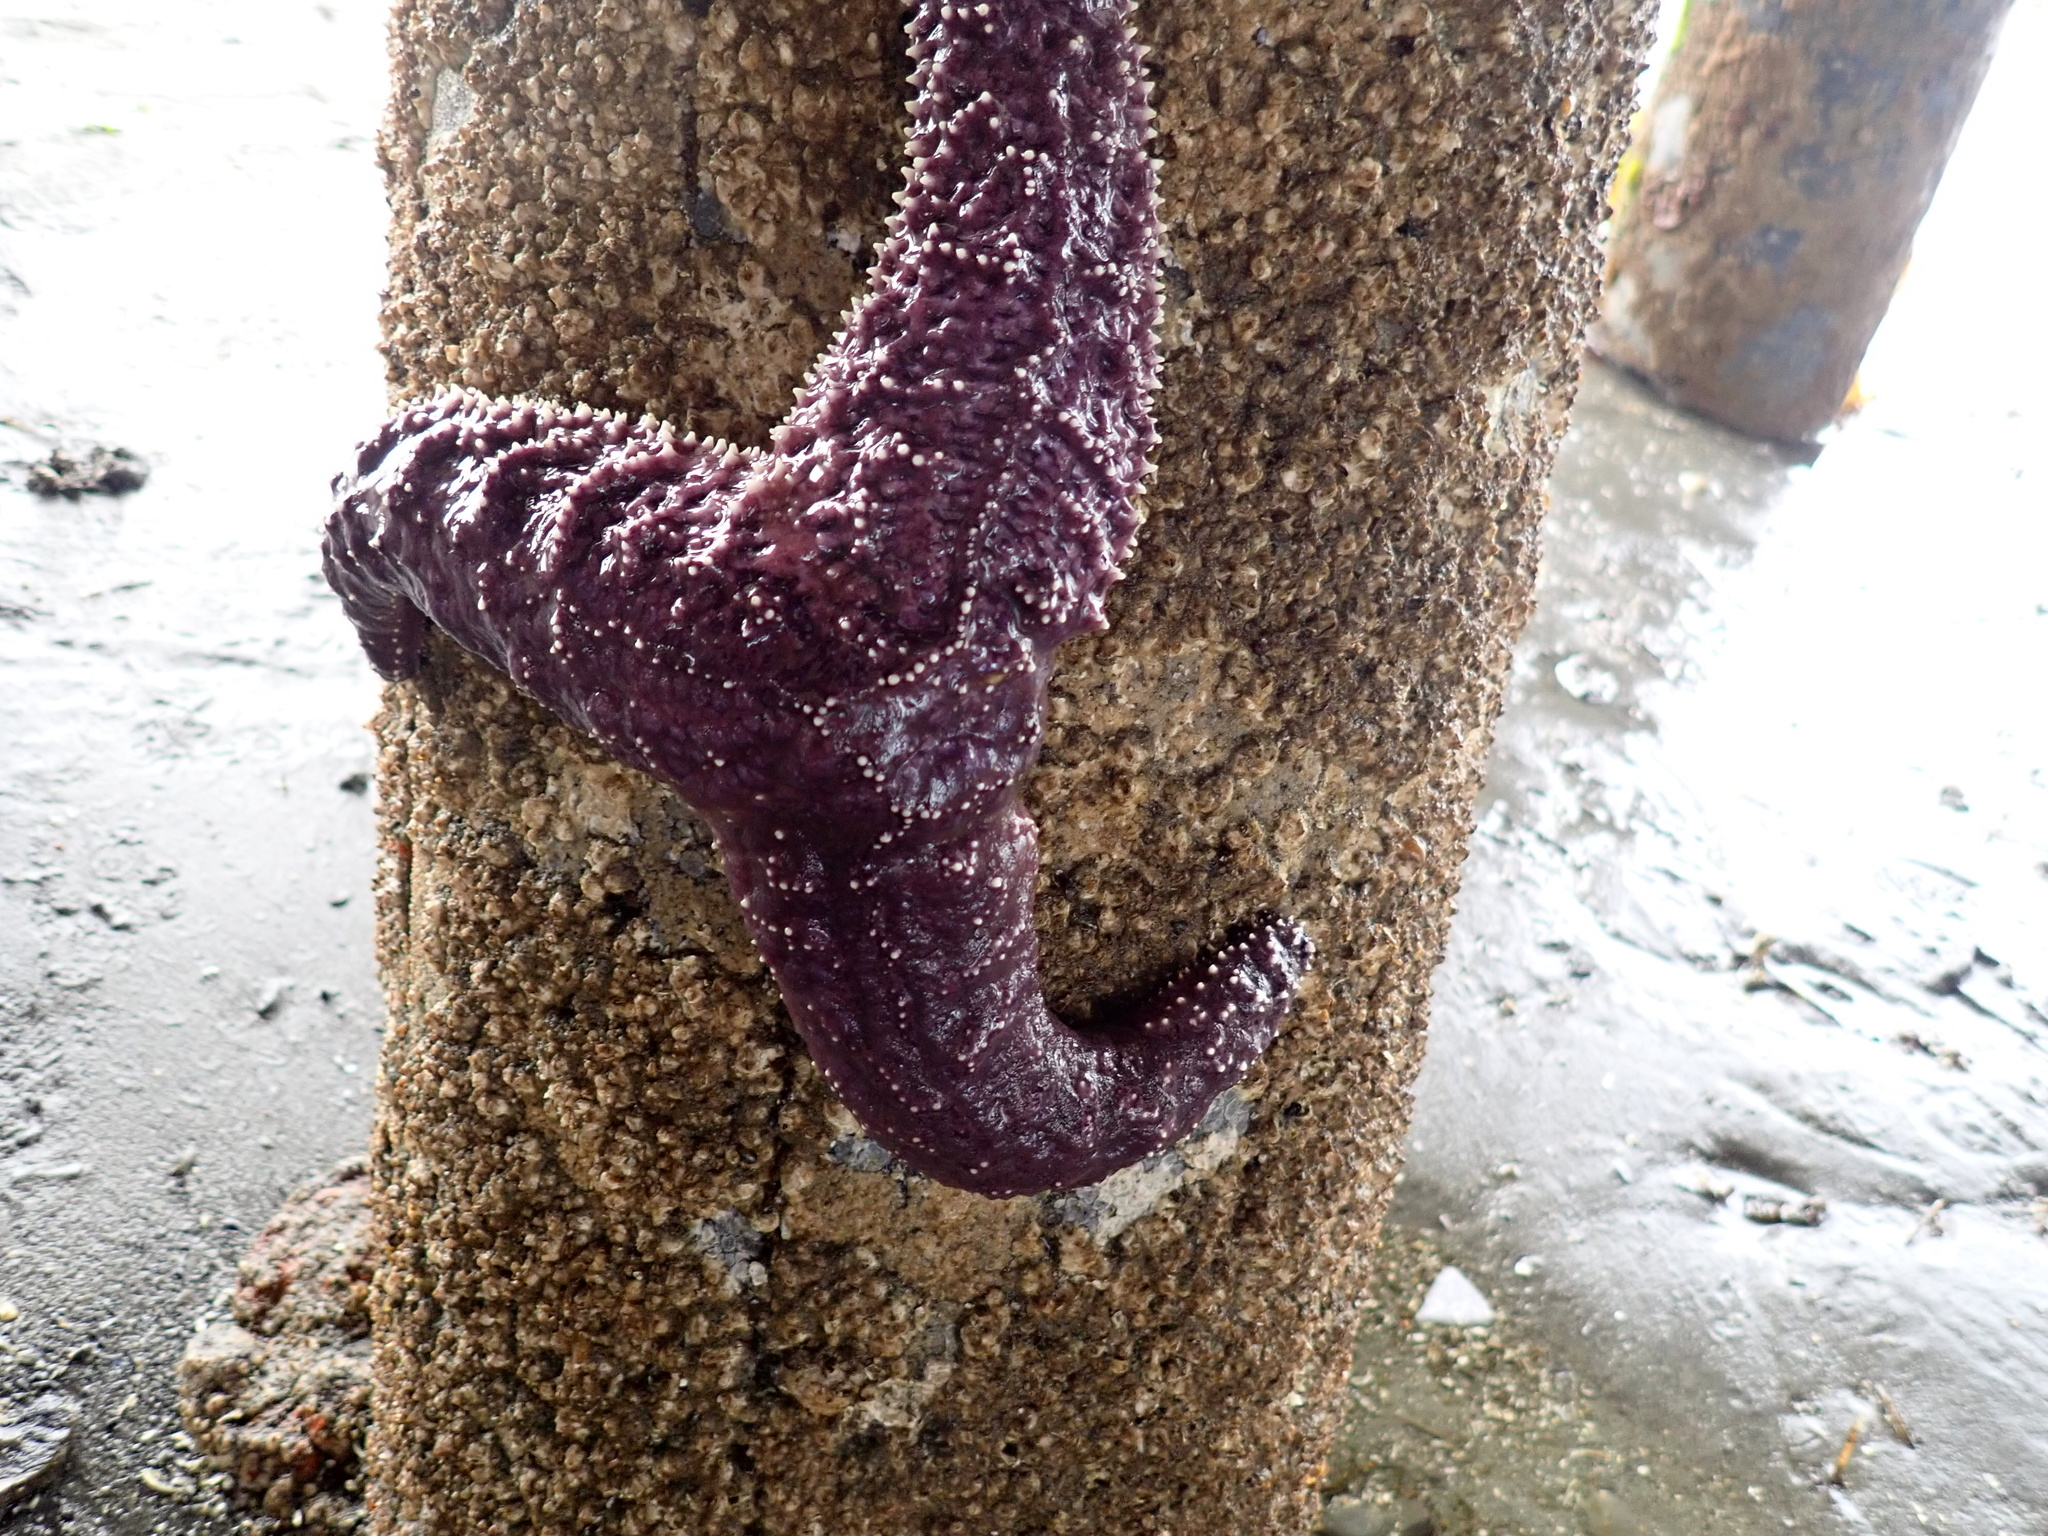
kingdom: Animalia
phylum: Echinodermata
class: Asteroidea
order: Forcipulatida
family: Asteriidae
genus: Pisaster
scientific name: Pisaster ochraceus
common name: Ochre stars
